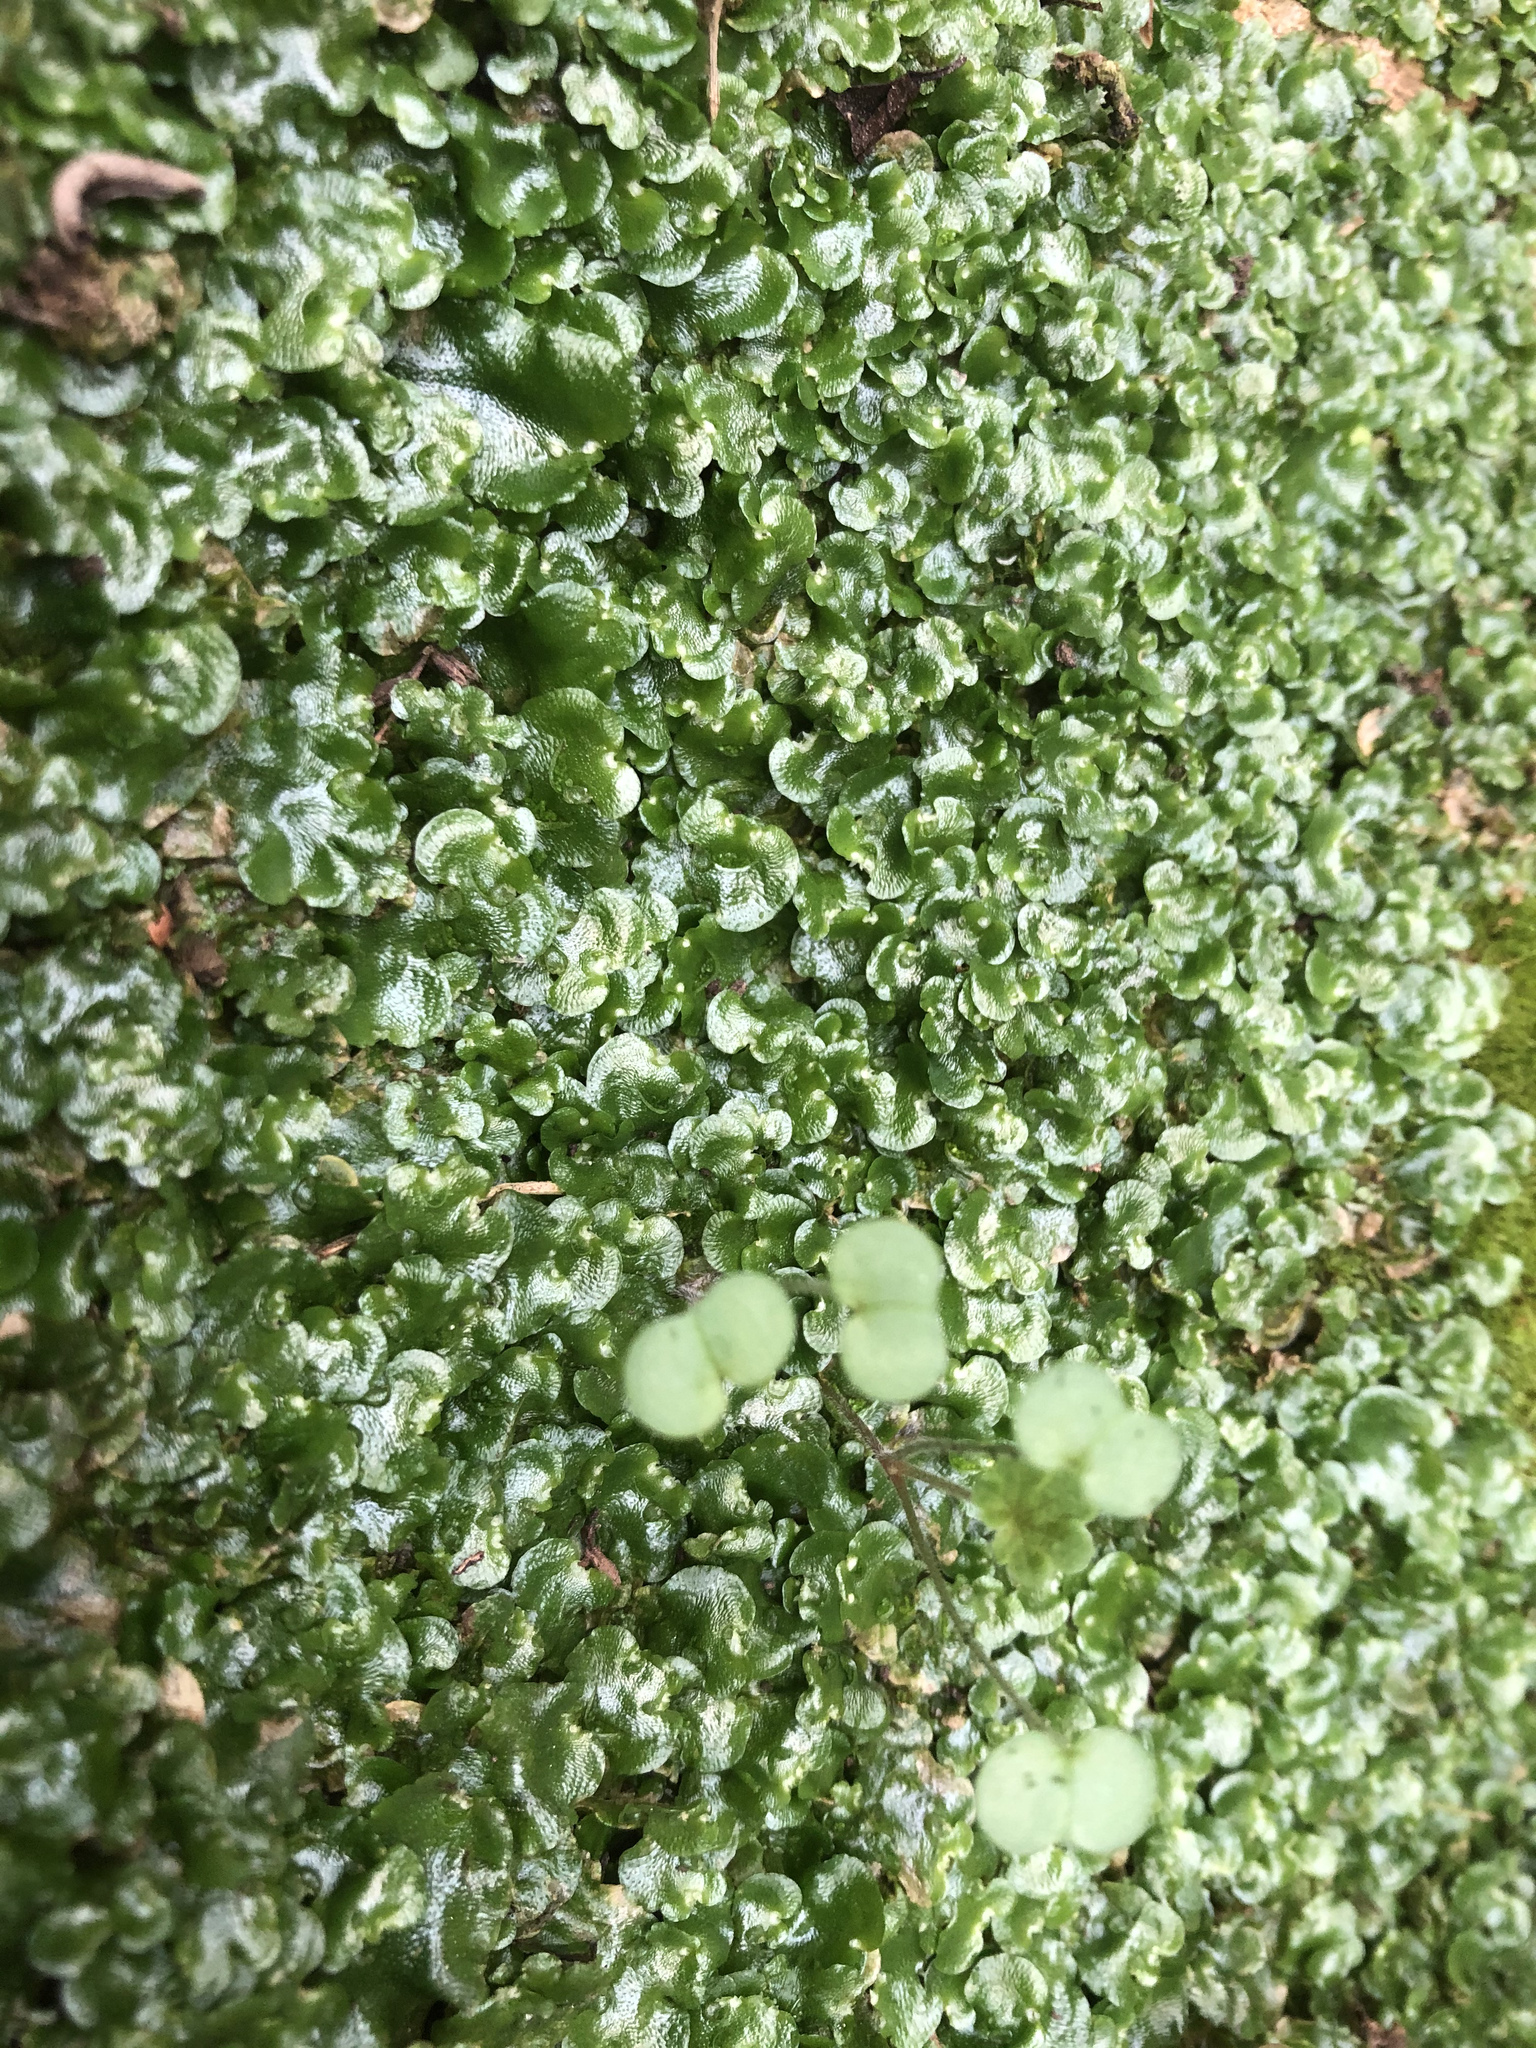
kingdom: Plantae
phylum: Marchantiophyta
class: Marchantiopsida
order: Lunulariales
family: Lunulariaceae
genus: Lunularia
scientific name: Lunularia cruciata
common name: Crescent-cup liverwort
